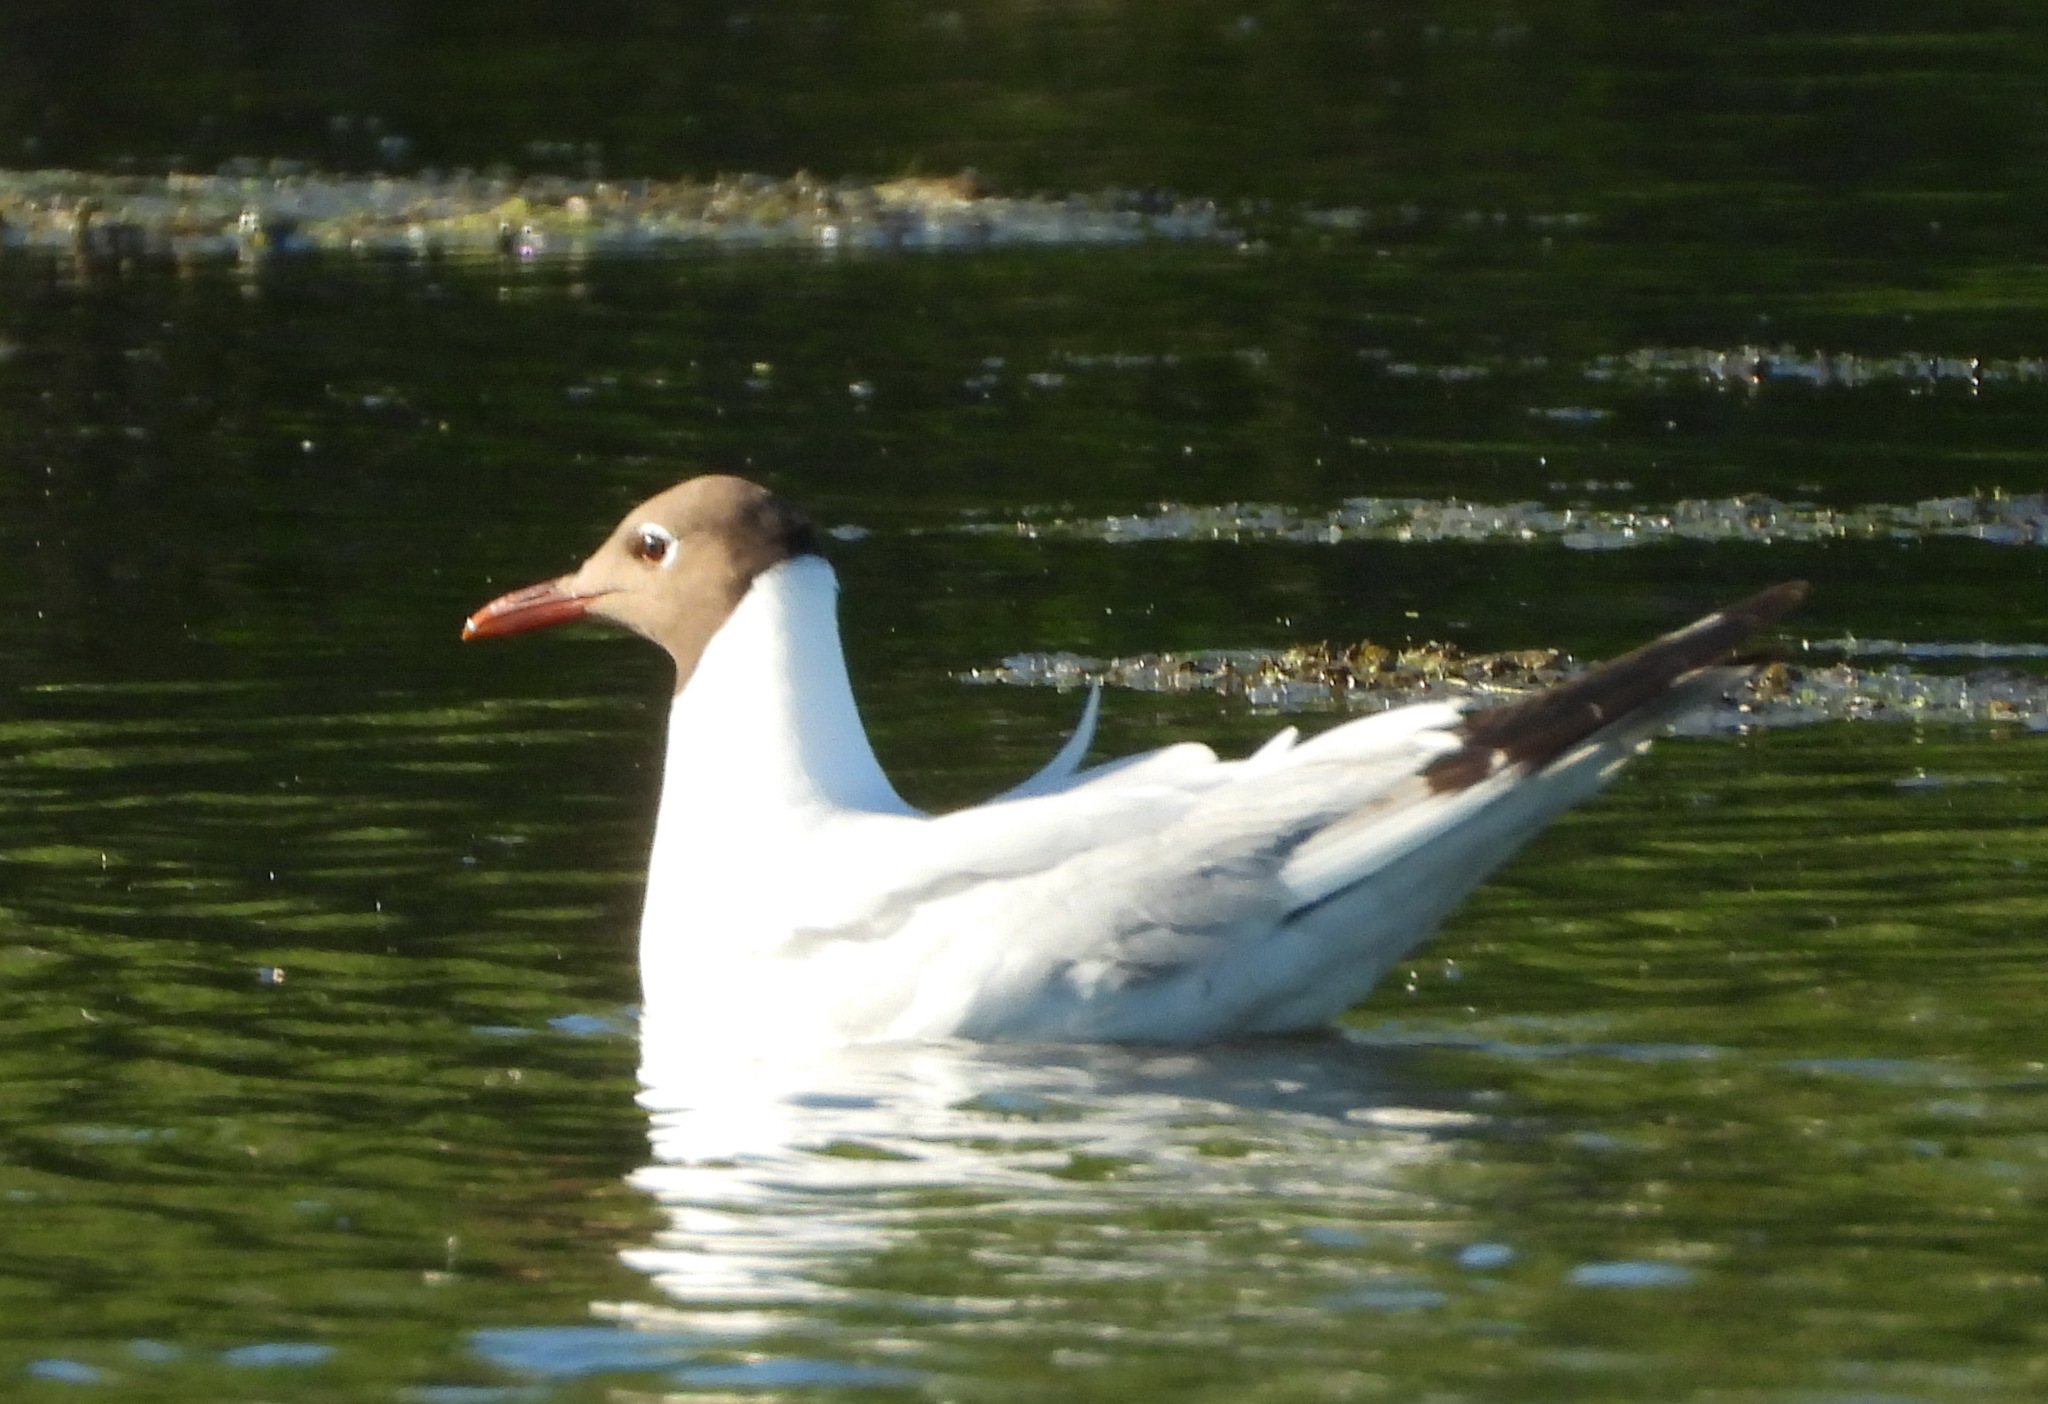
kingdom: Animalia
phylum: Chordata
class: Aves
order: Charadriiformes
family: Laridae
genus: Chroicocephalus
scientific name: Chroicocephalus ridibundus
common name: Black-headed gull
